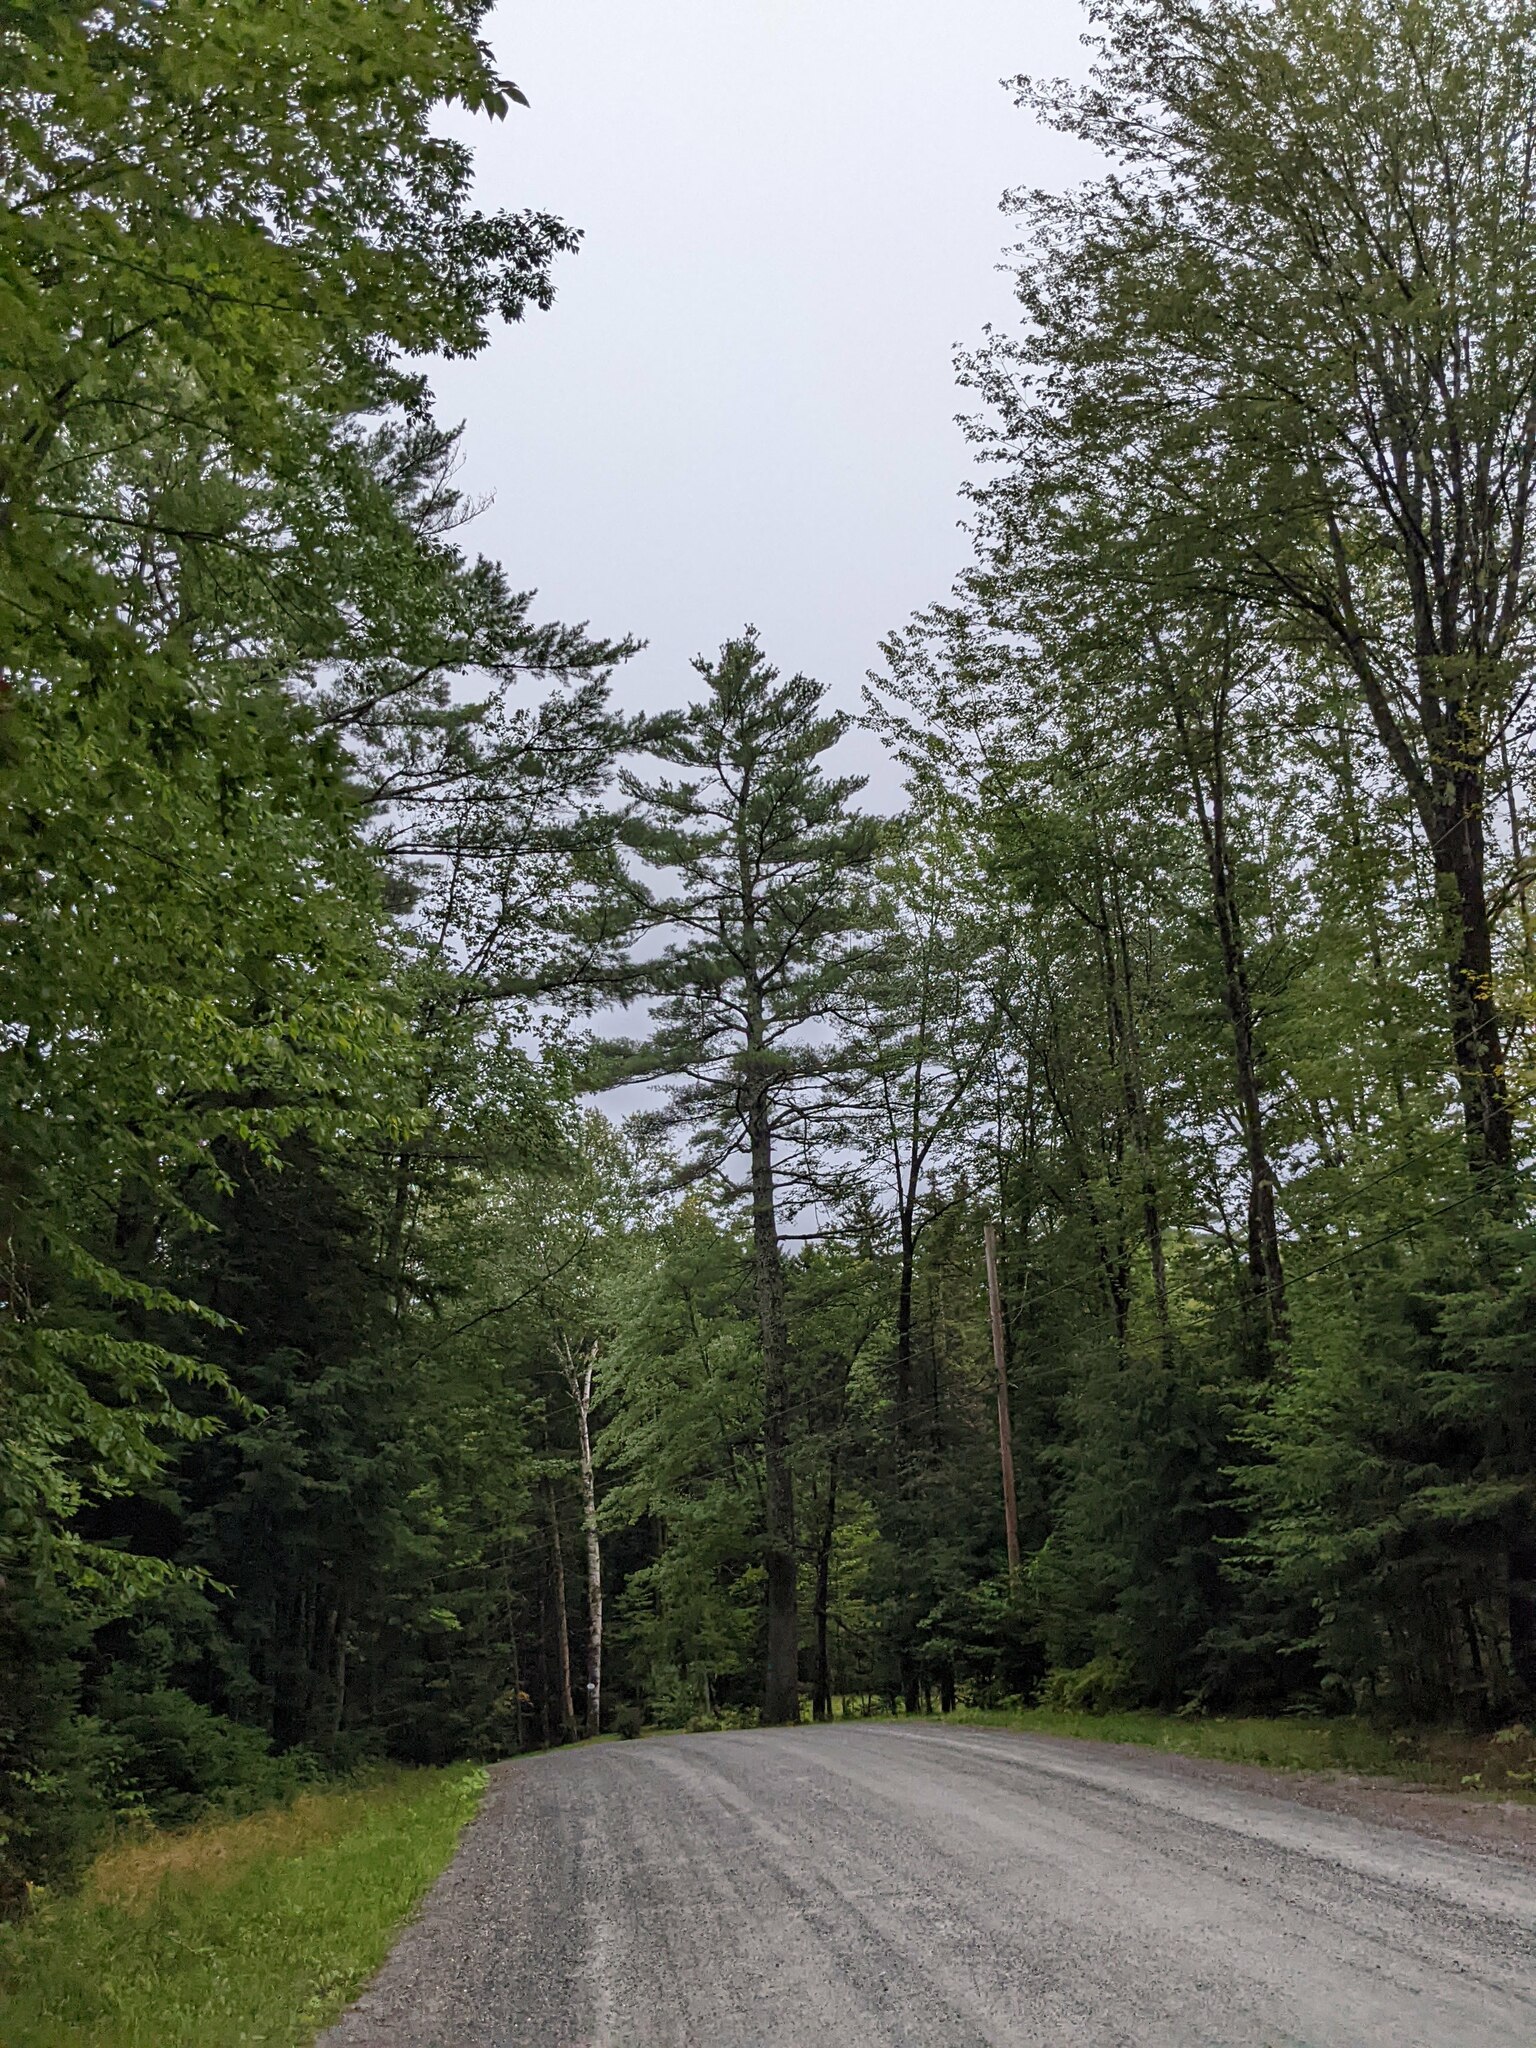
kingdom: Plantae
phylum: Tracheophyta
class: Pinopsida
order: Pinales
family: Pinaceae
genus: Pinus
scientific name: Pinus strobus
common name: Weymouth pine
